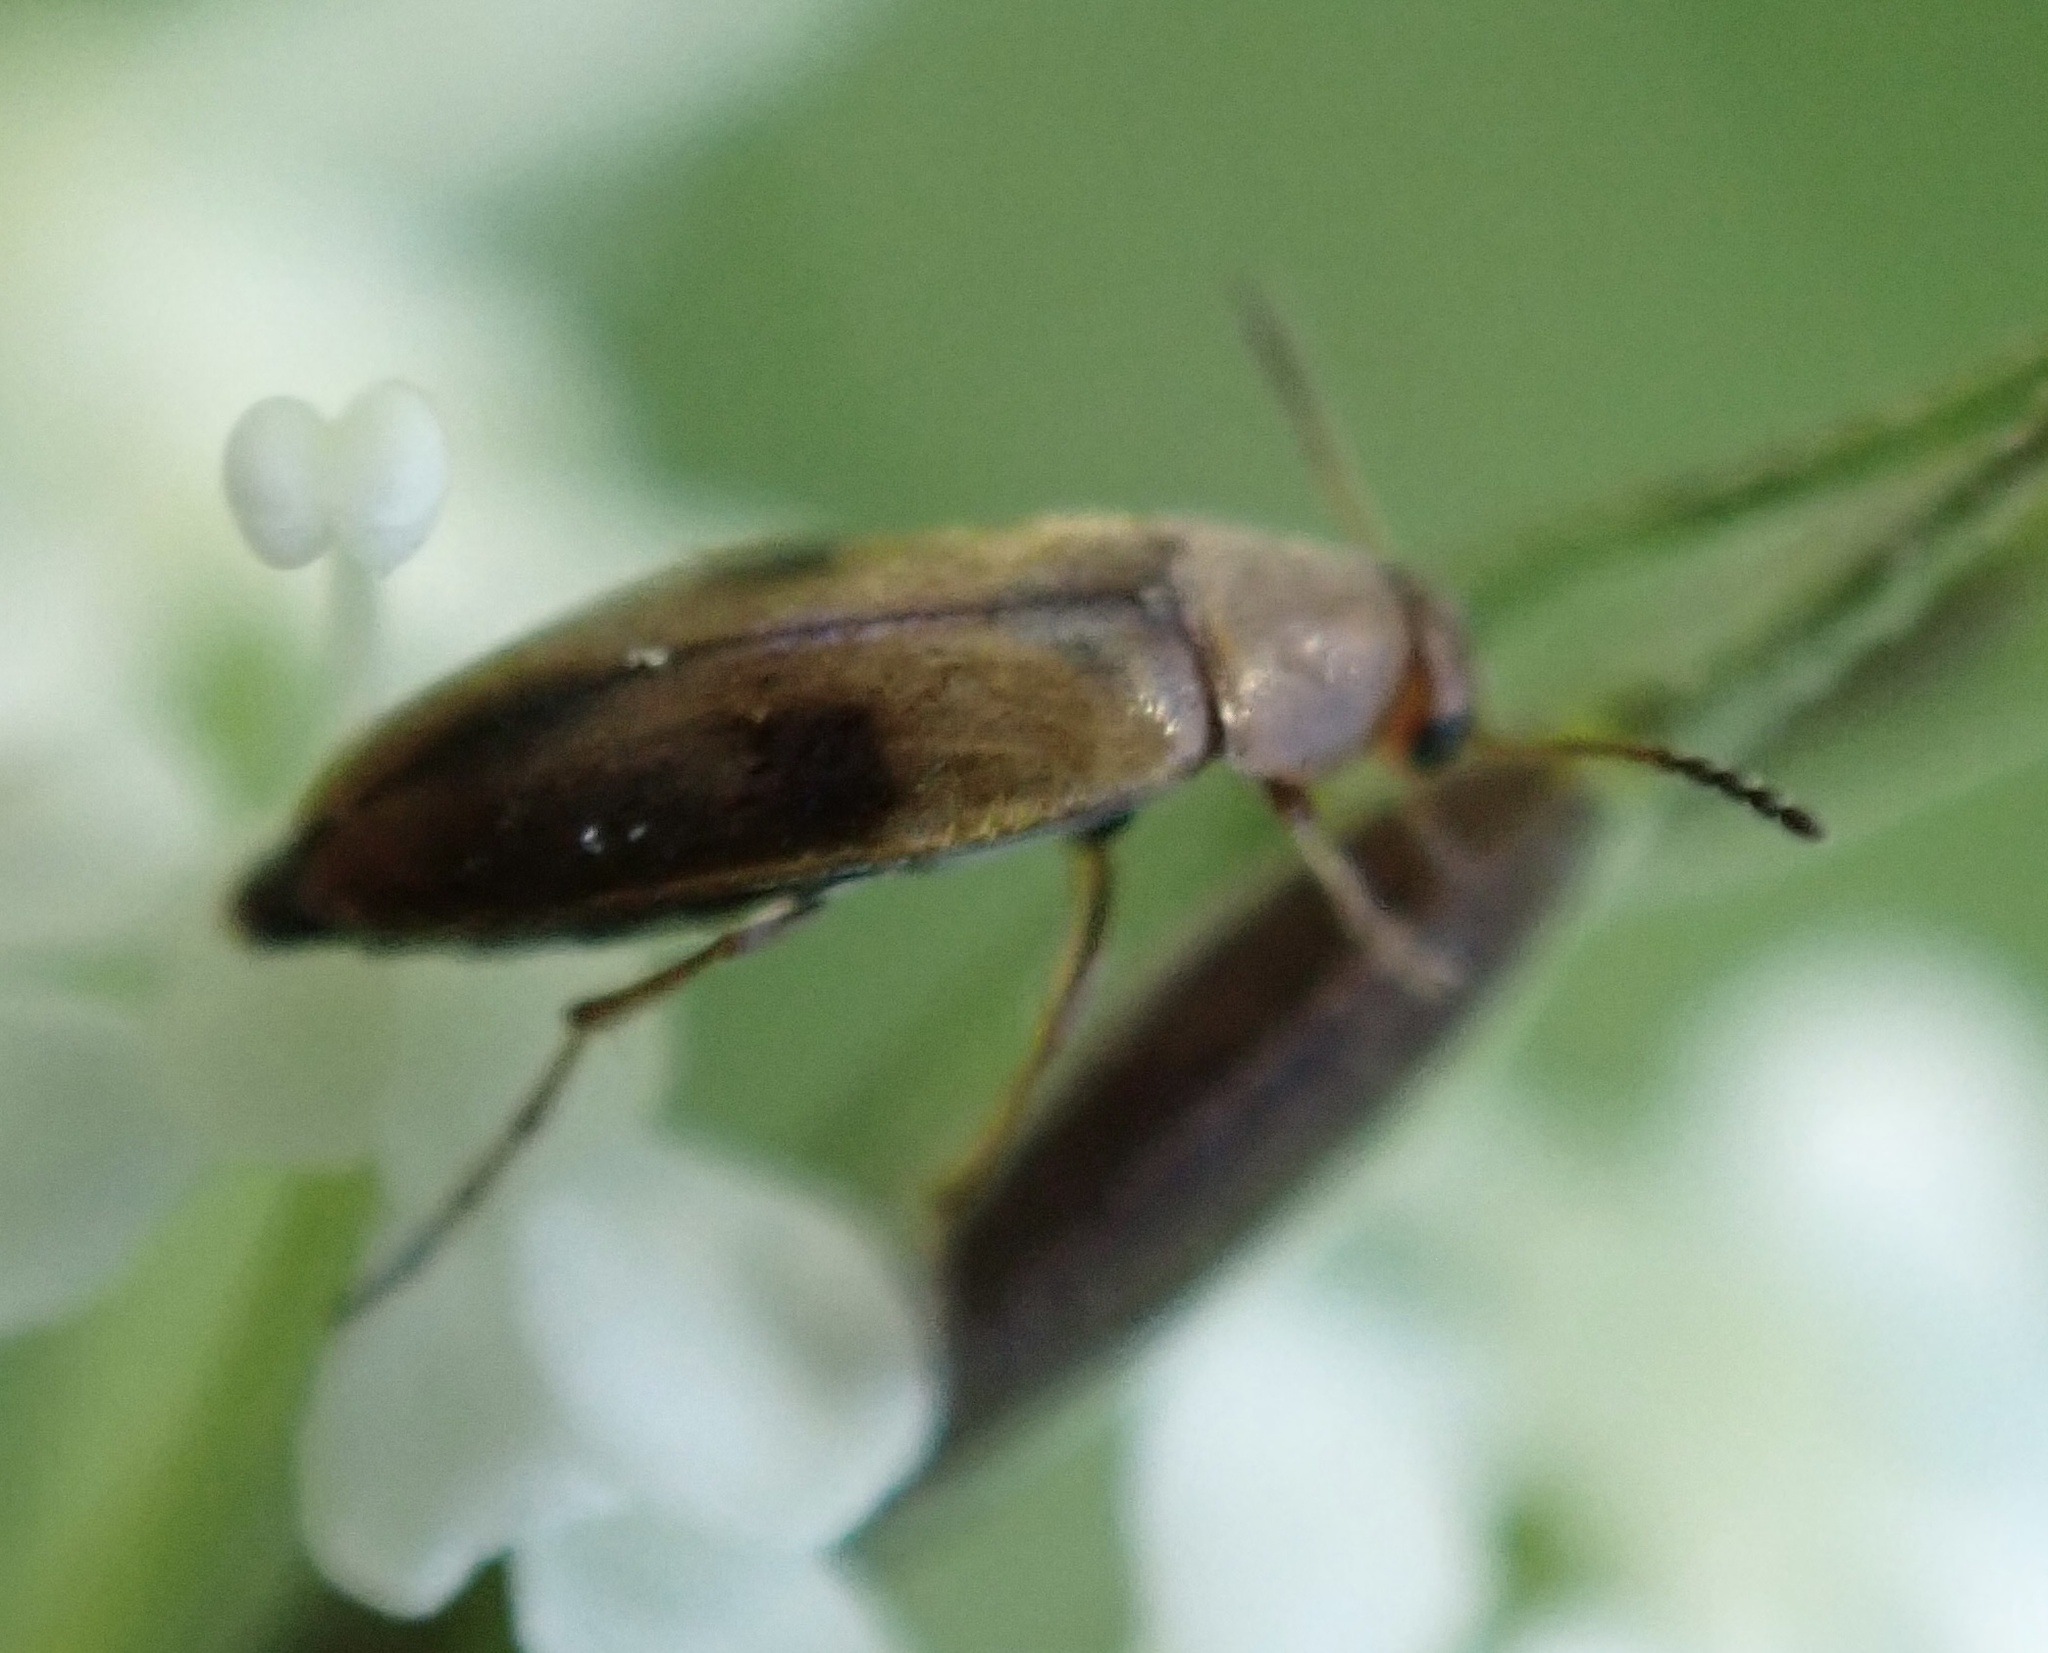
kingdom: Animalia
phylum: Arthropoda
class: Insecta
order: Coleoptera
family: Scraptiidae
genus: Anaspis
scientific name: Anaspis maculata
